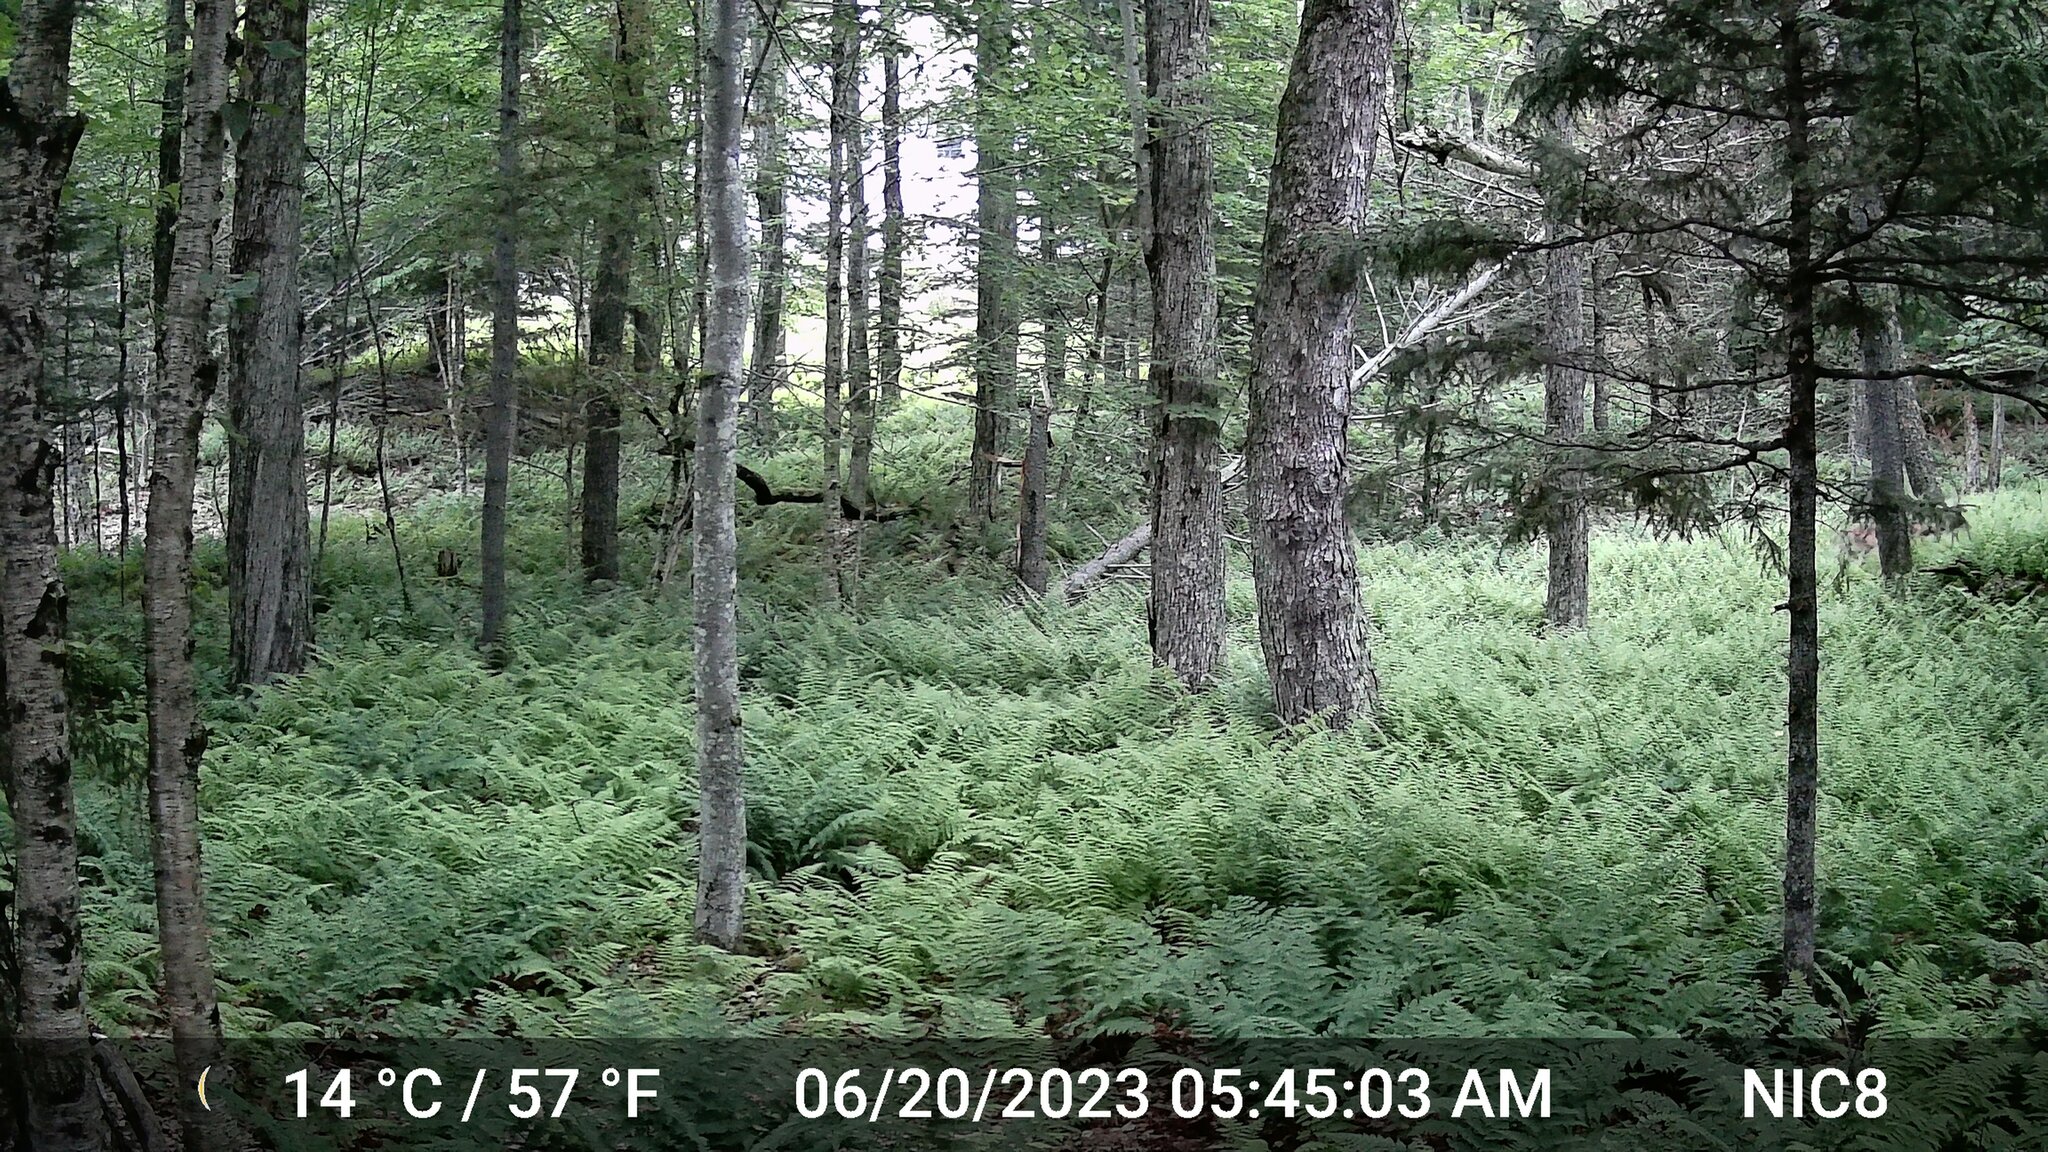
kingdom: Animalia
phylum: Chordata
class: Mammalia
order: Artiodactyla
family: Cervidae
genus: Odocoileus
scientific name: Odocoileus virginianus
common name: White-tailed deer
